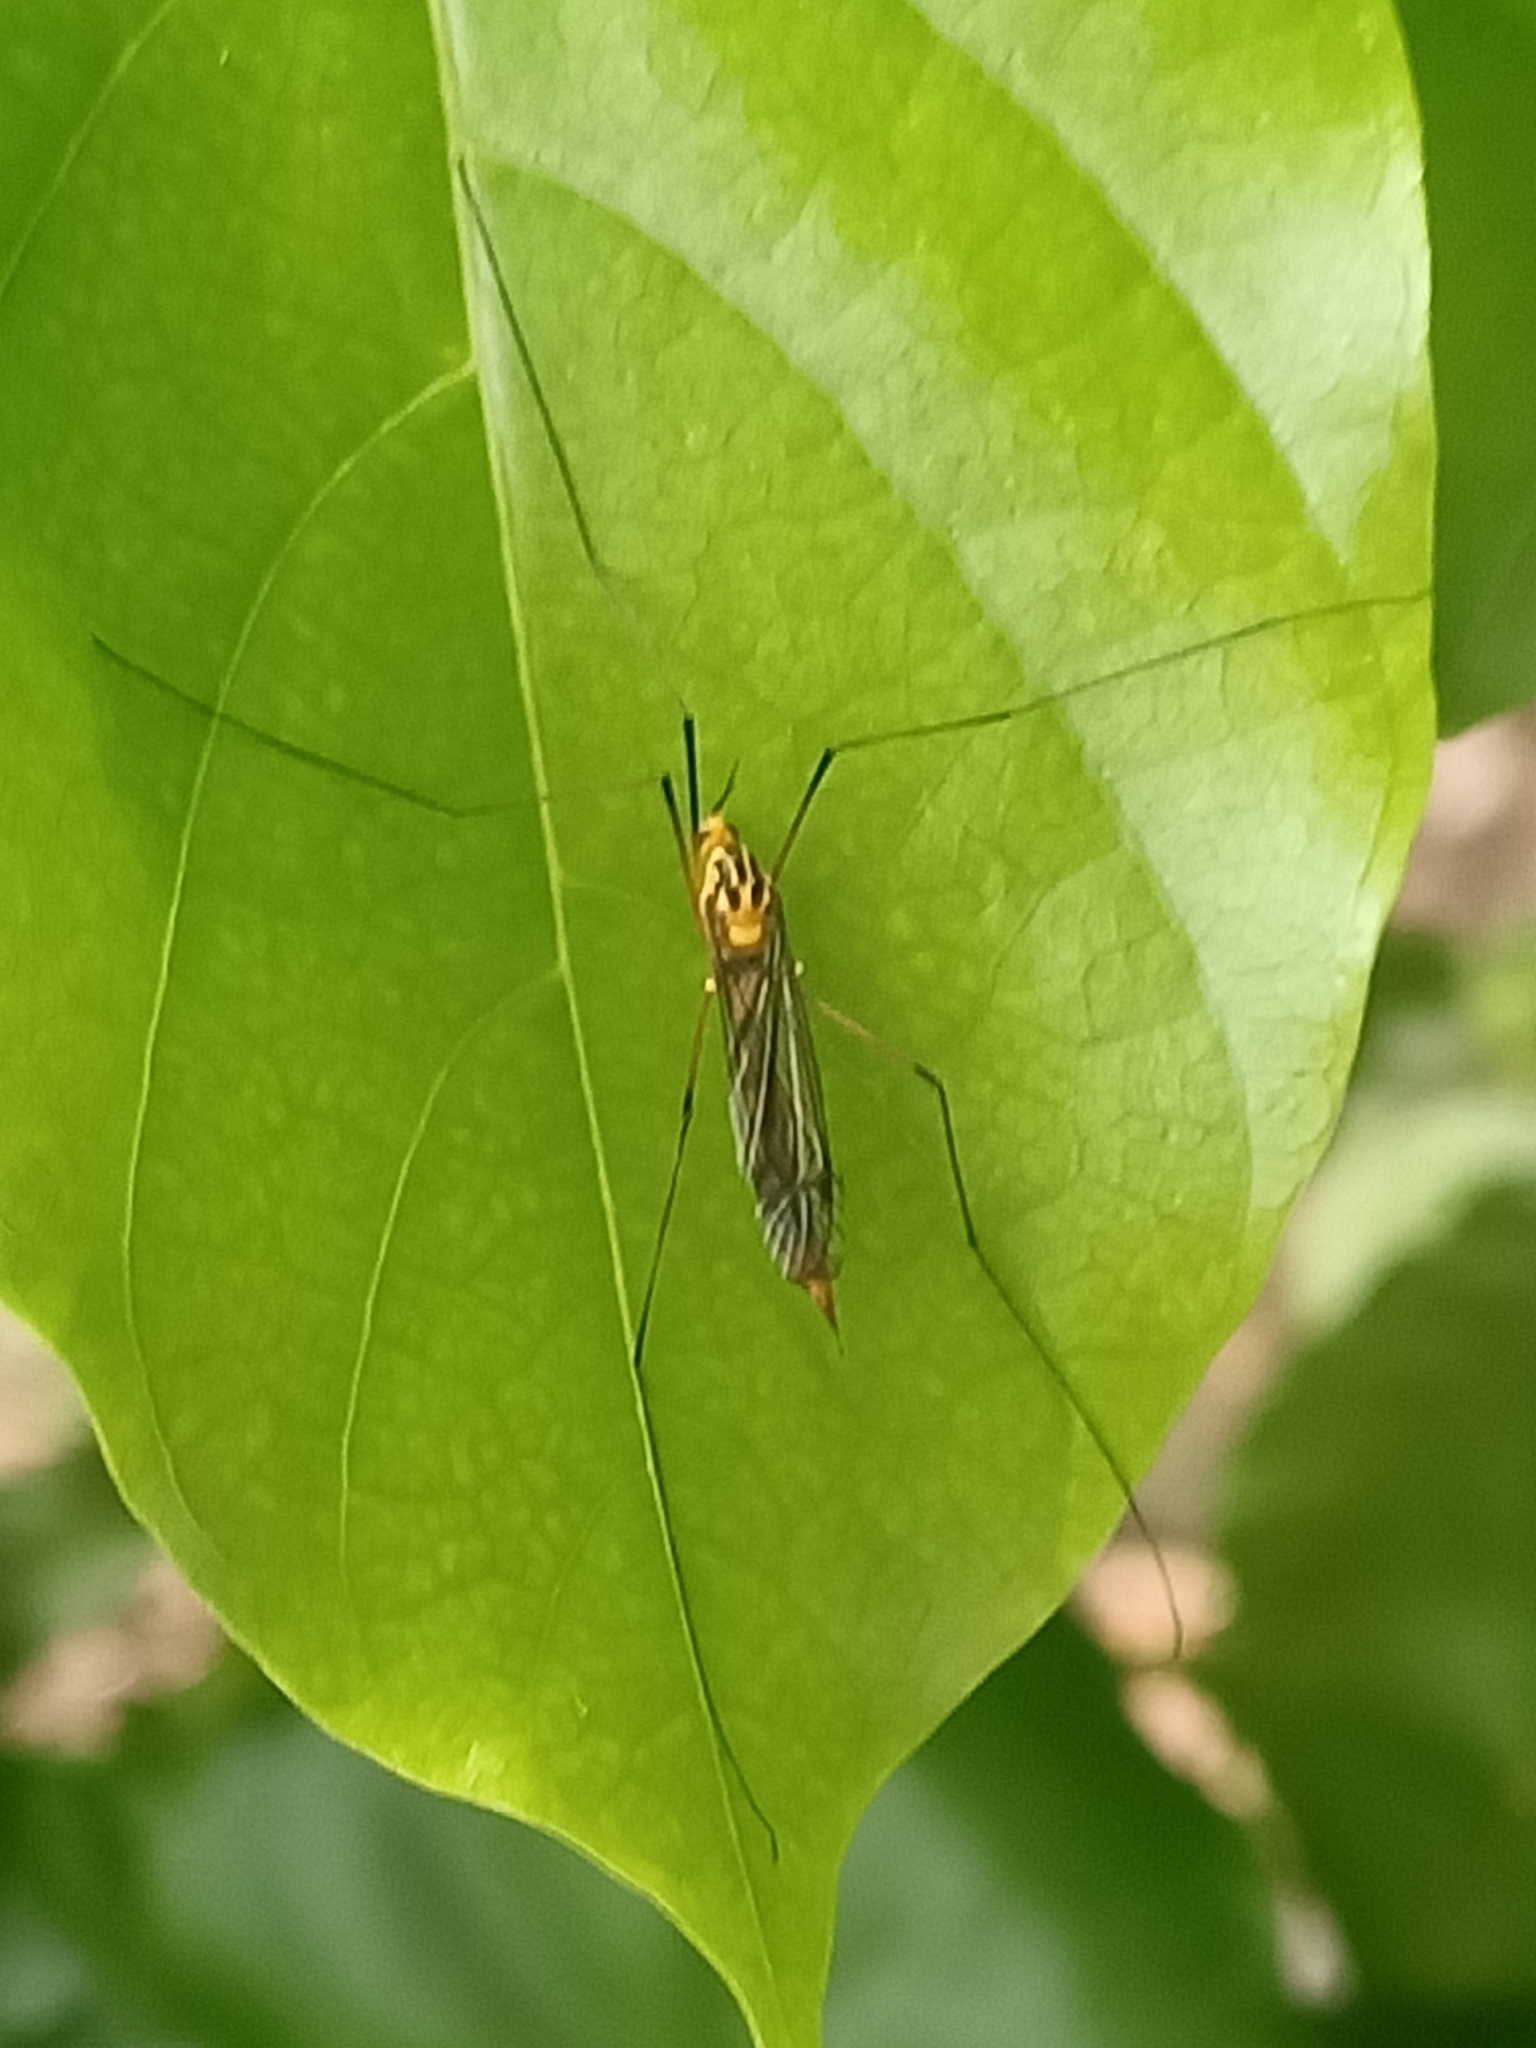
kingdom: Animalia
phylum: Arthropoda
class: Insecta
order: Diptera
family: Tipulidae
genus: Nephrotoma
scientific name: Nephrotoma australasiae
